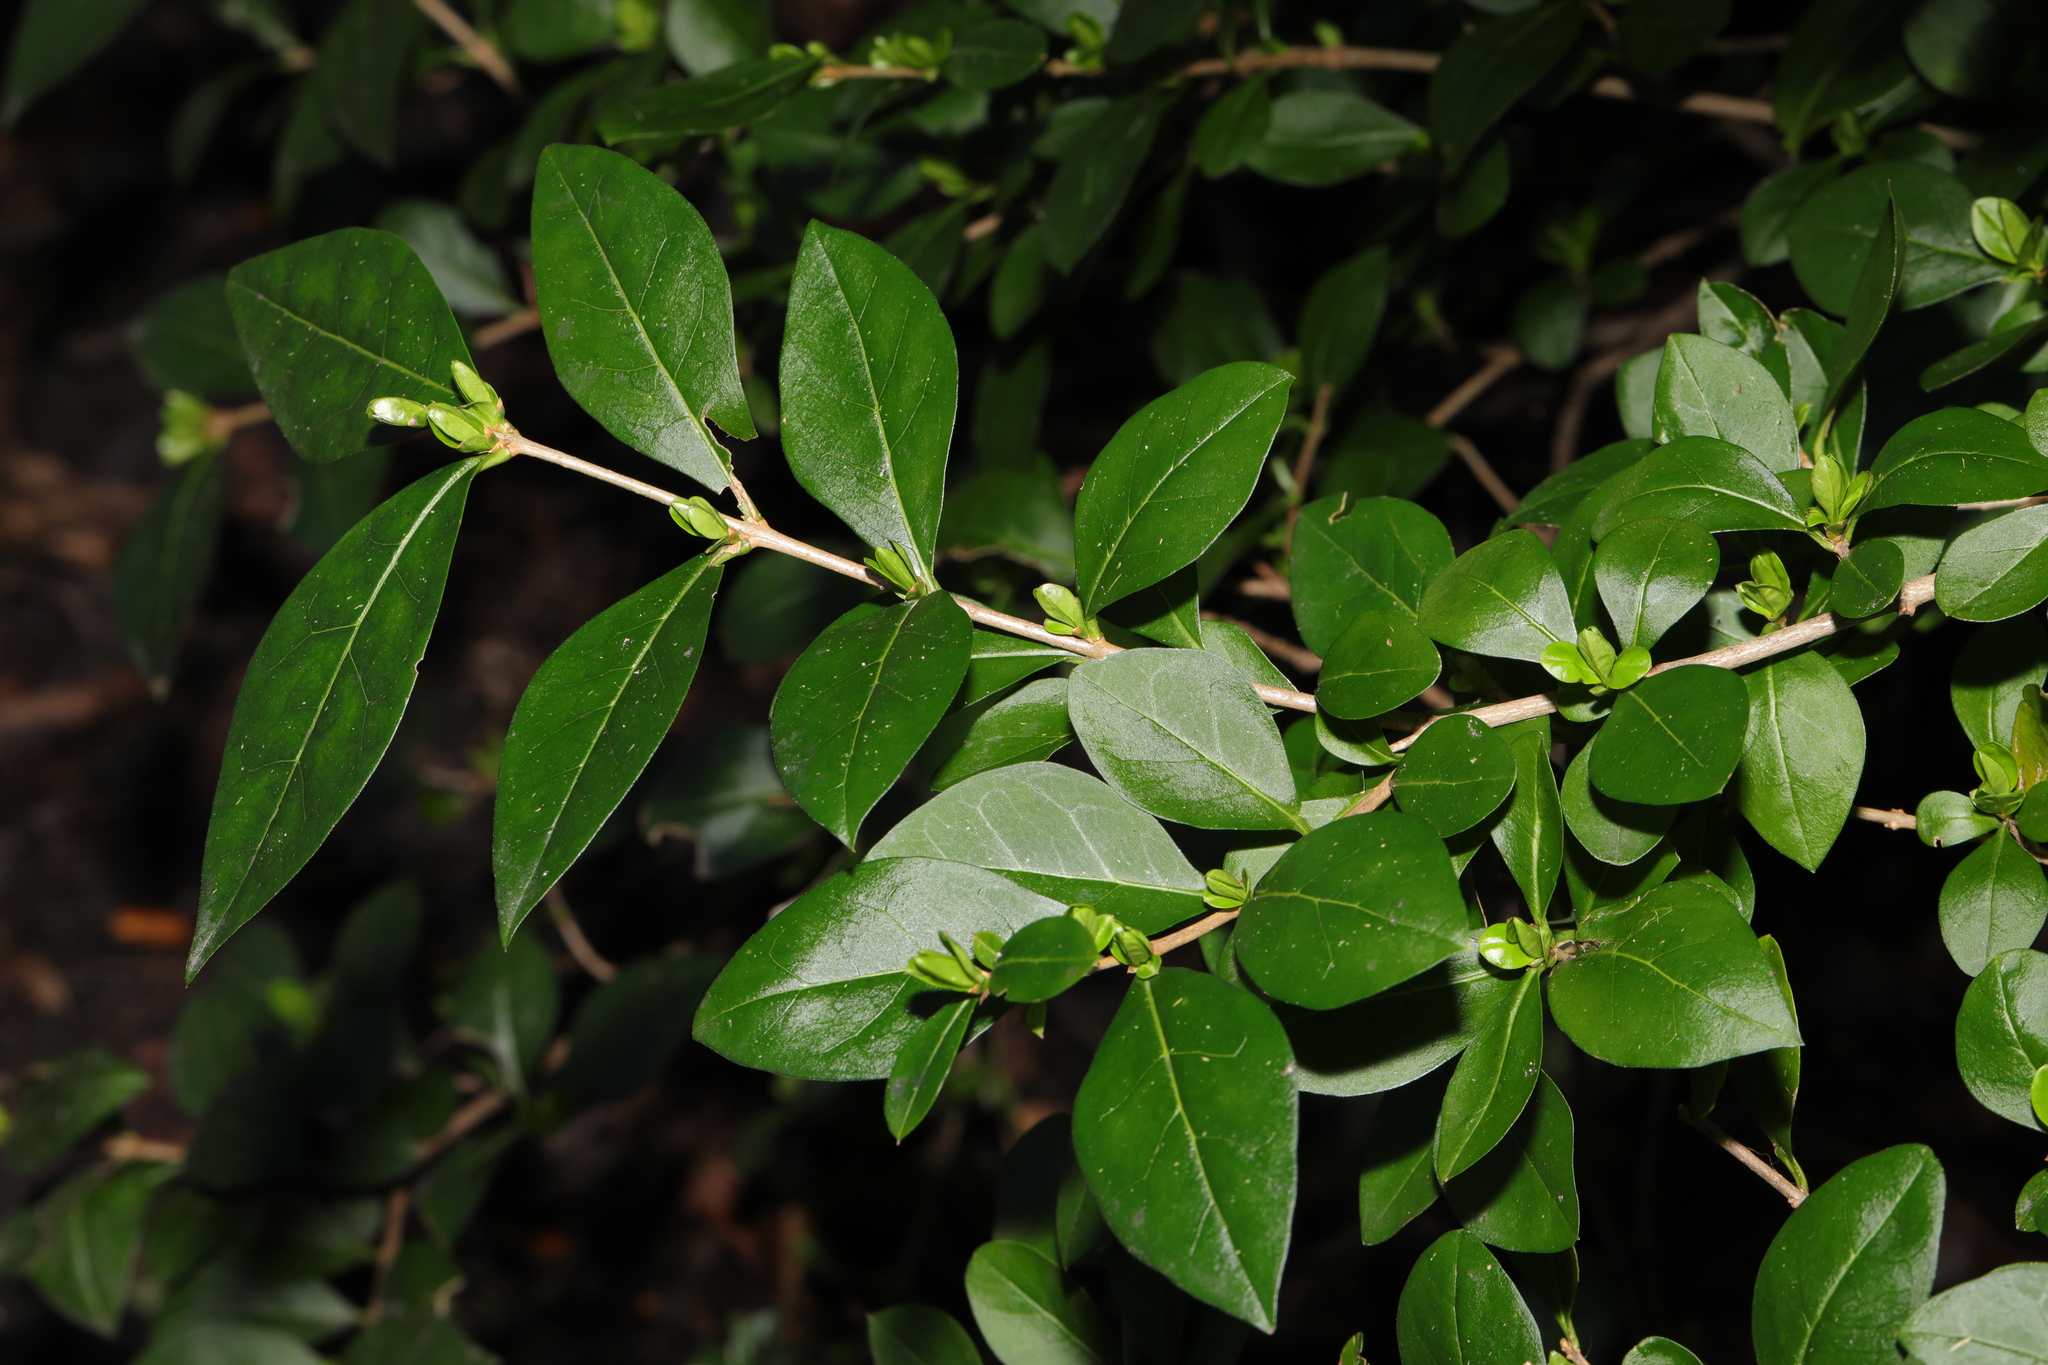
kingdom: Plantae
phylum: Tracheophyta
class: Magnoliopsida
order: Lamiales
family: Oleaceae
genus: Ligustrum
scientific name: Ligustrum ovalifolium
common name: California privet
